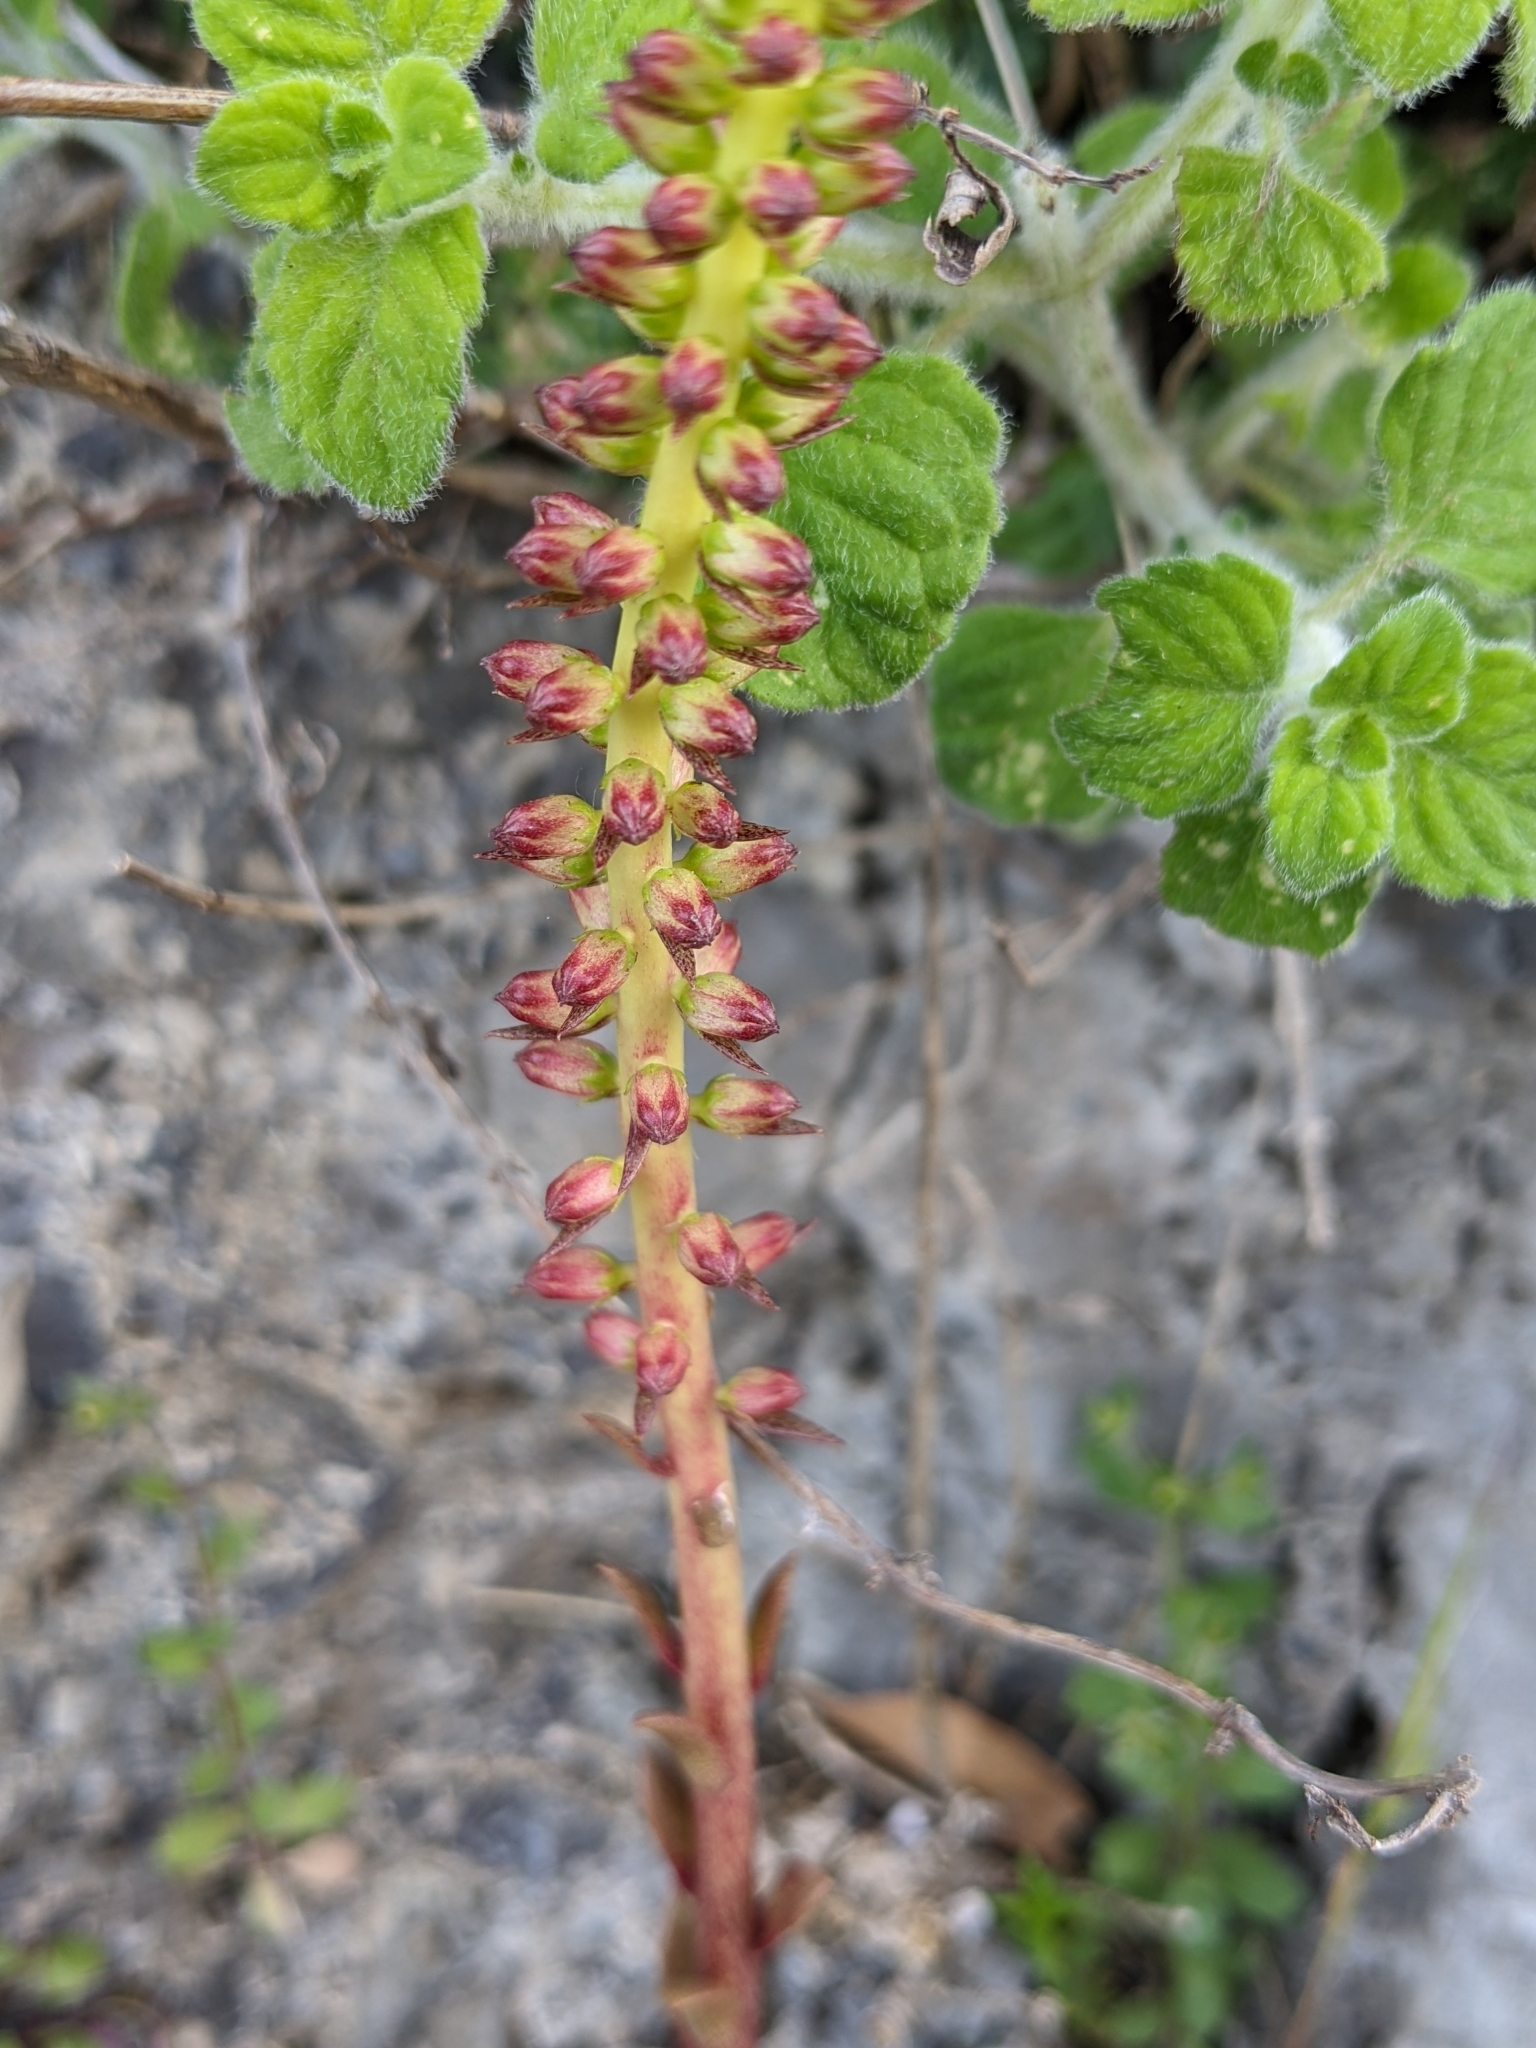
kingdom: Plantae
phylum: Tracheophyta
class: Magnoliopsida
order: Saxifragales
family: Crassulaceae
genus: Umbilicus
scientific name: Umbilicus horizontalis
